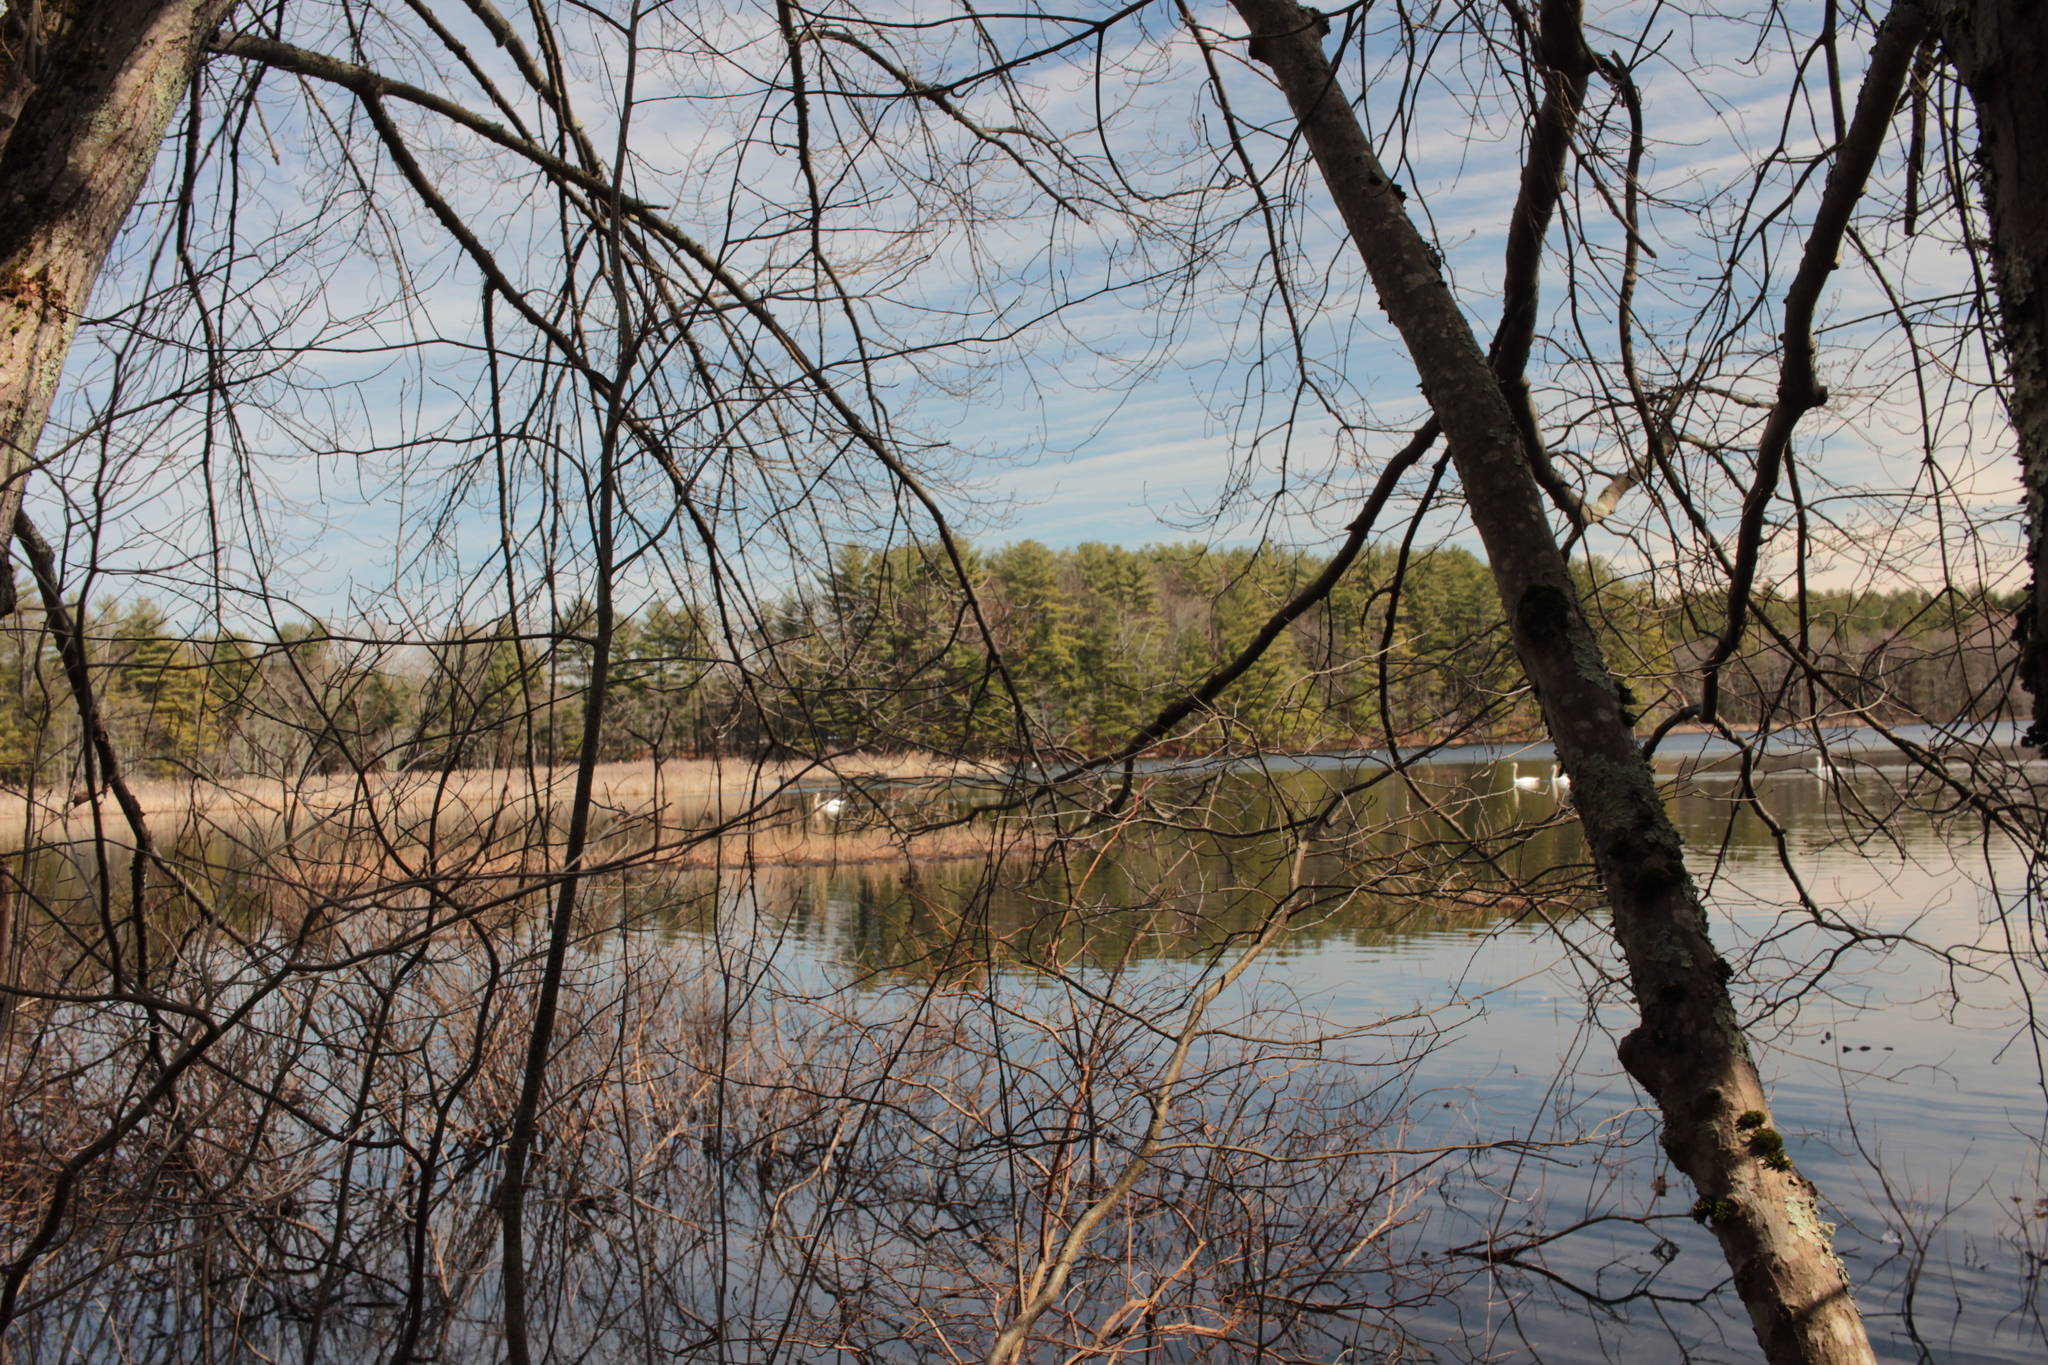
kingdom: Animalia
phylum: Chordata
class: Aves
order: Anseriformes
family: Anatidae
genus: Cygnus
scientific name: Cygnus olor
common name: Mute swan
